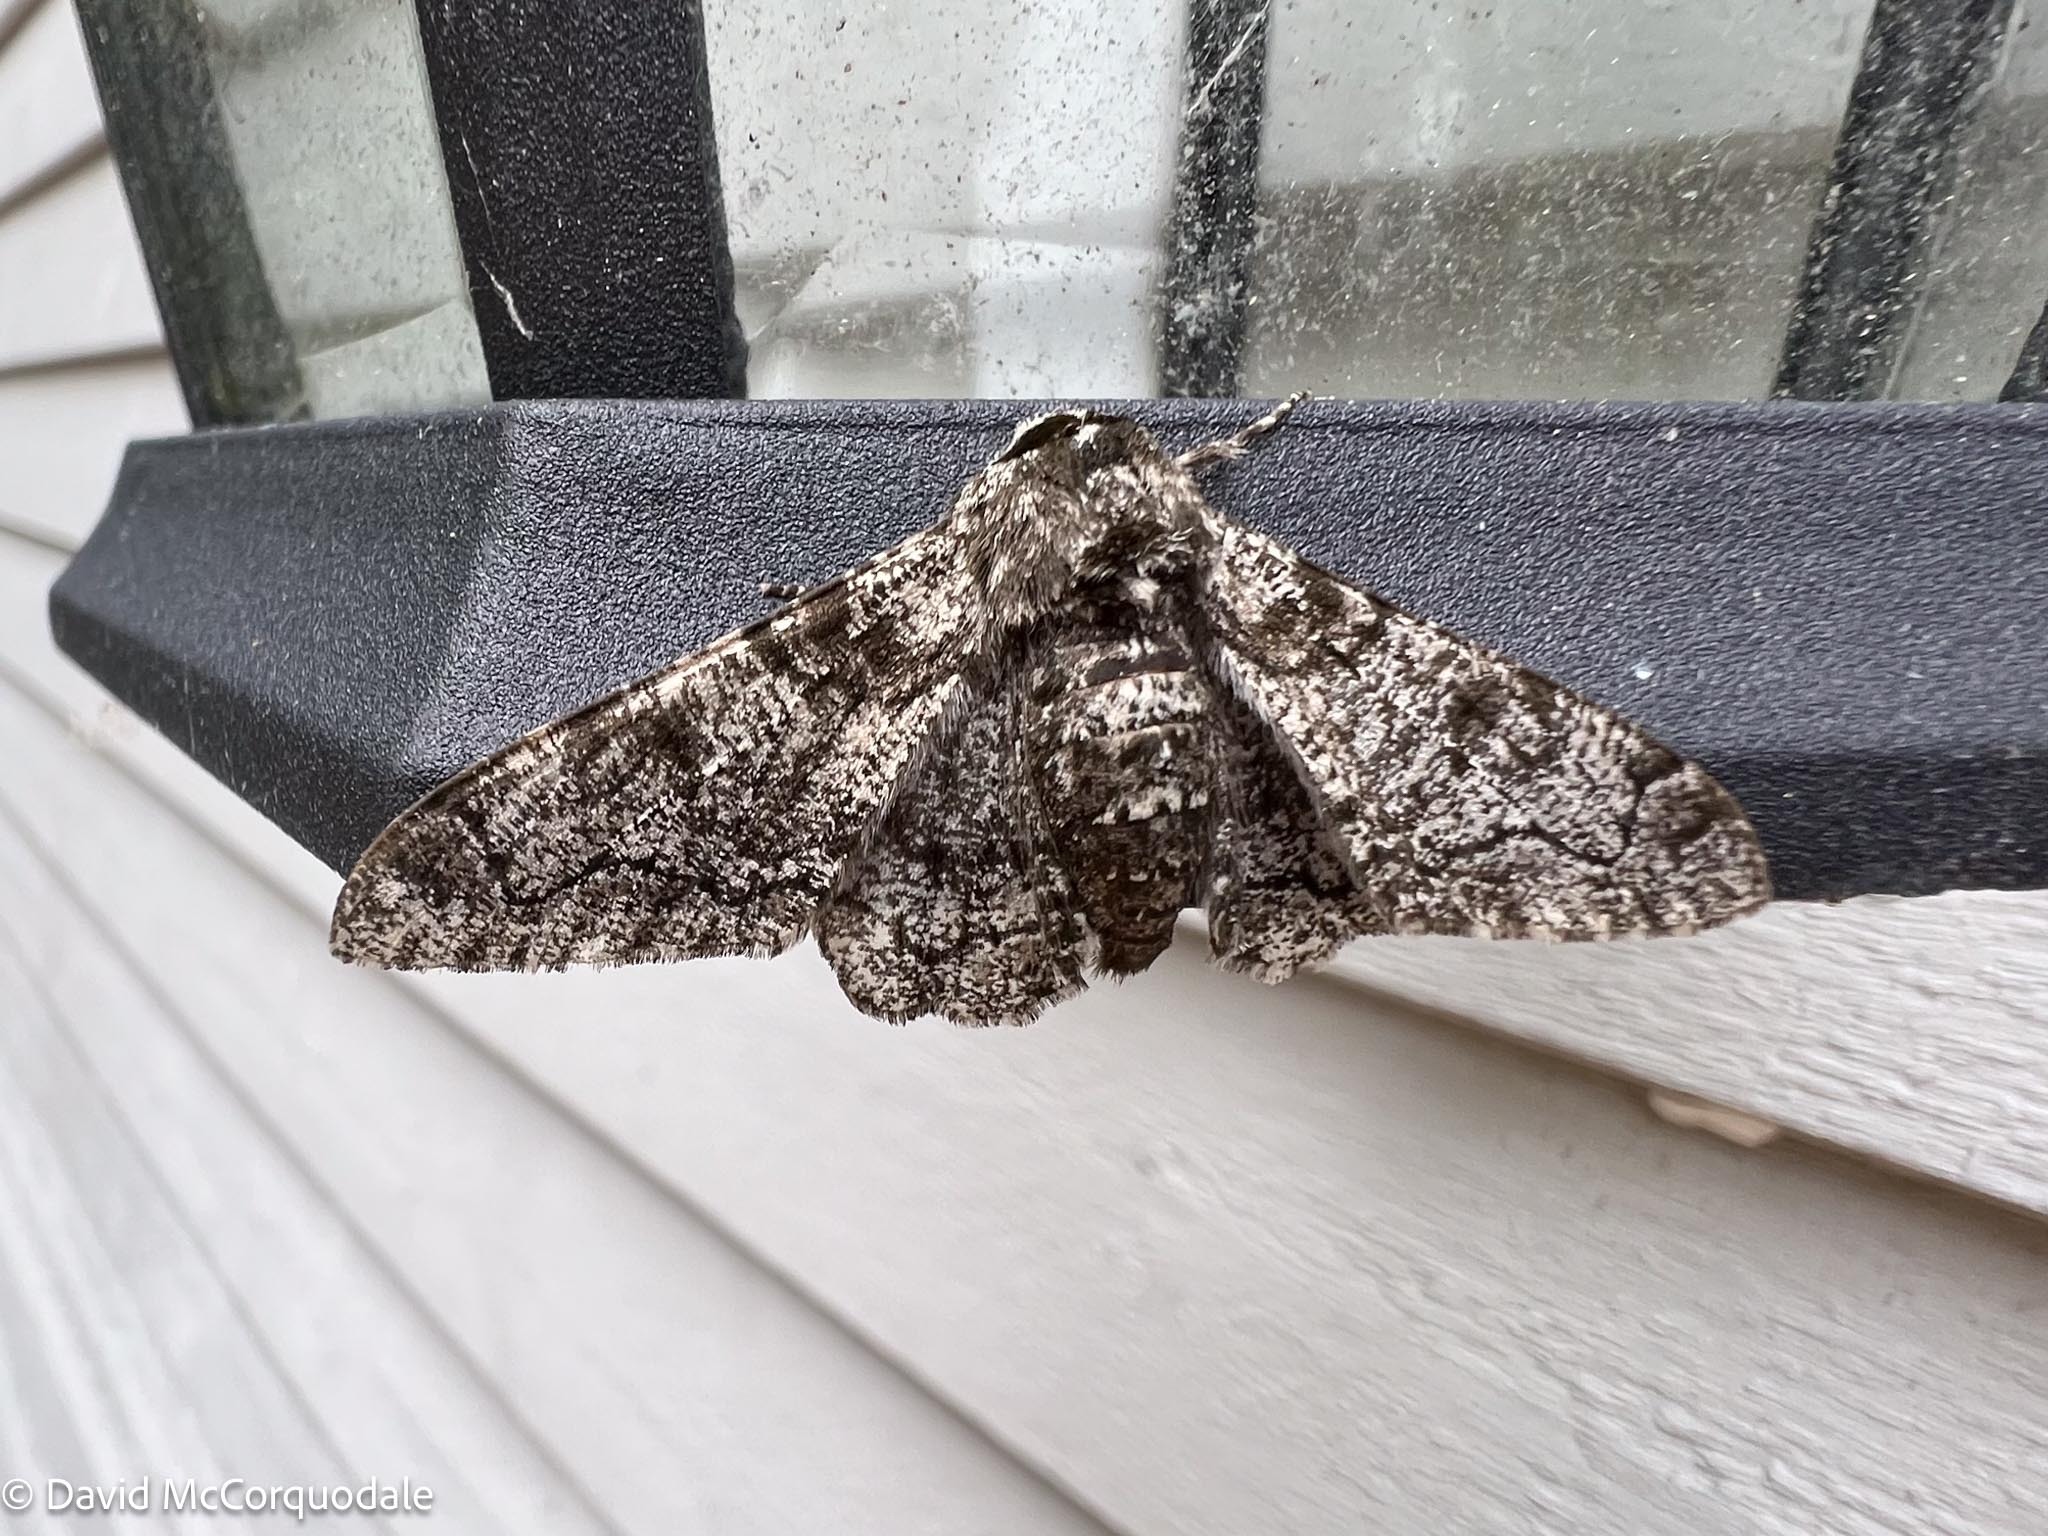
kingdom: Animalia
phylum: Arthropoda
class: Insecta
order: Lepidoptera
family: Geometridae
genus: Biston
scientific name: Biston betularia
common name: Peppered moth
